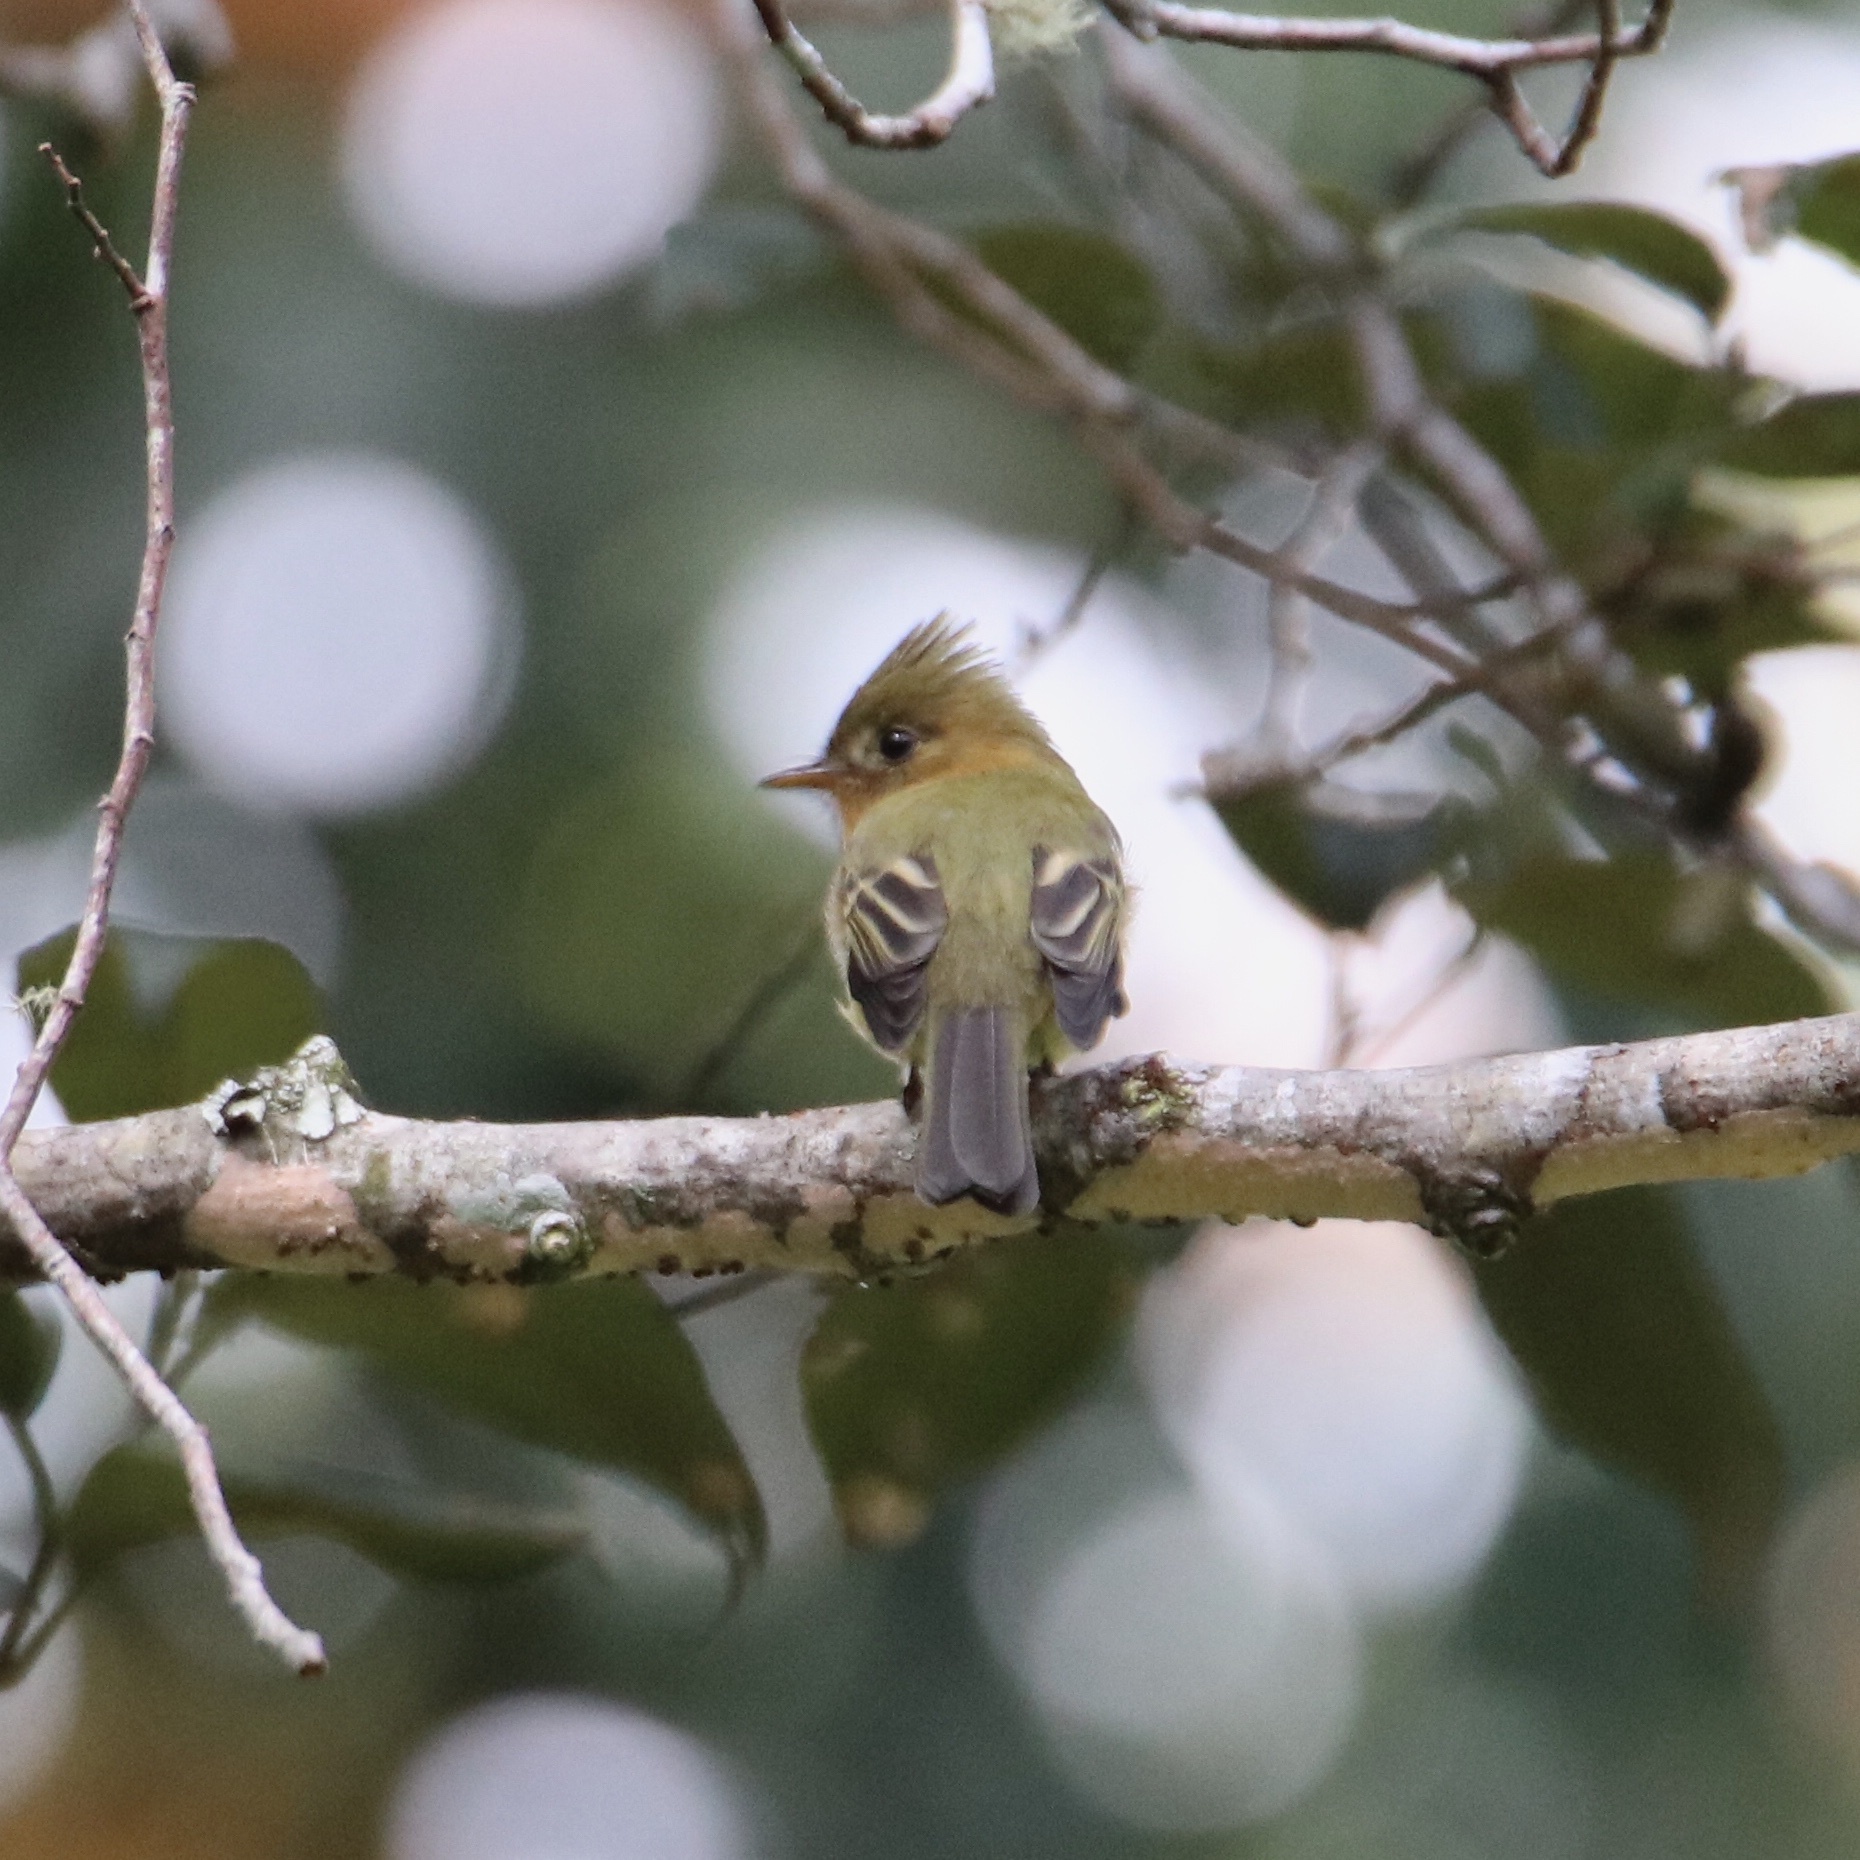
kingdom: Animalia
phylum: Chordata
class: Aves
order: Passeriformes
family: Tyrannidae
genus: Mitrephanes
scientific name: Mitrephanes phaeocercus
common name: Northern tufted flycatcher
